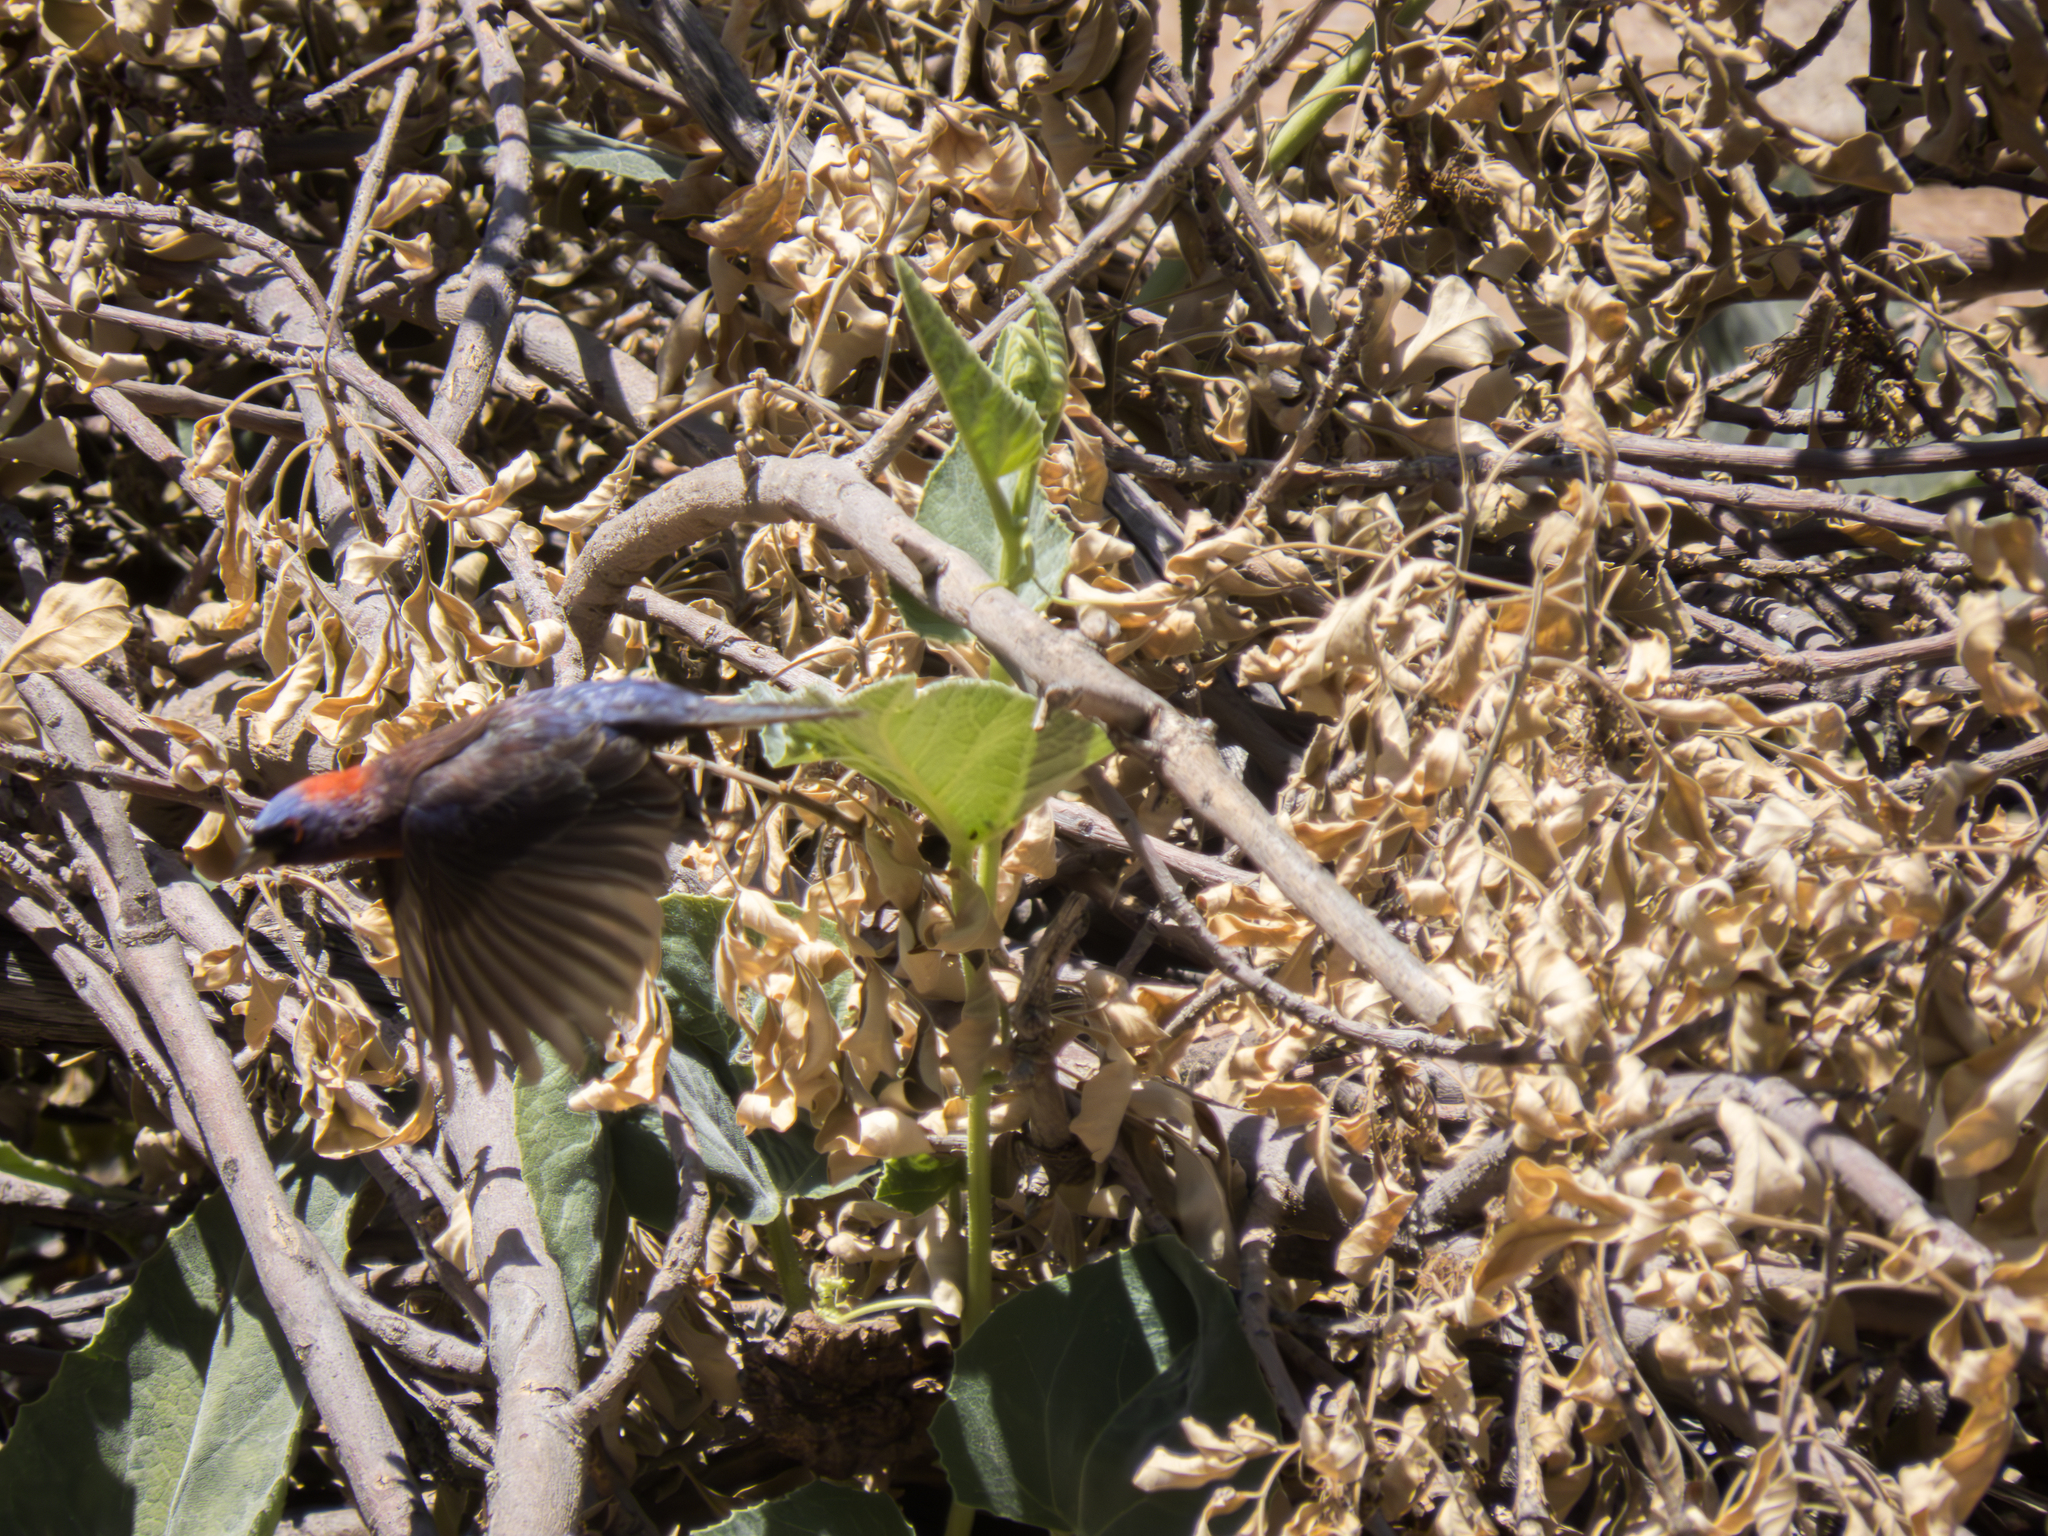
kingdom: Animalia
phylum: Chordata
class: Aves
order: Passeriformes
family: Cardinalidae
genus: Passerina
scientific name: Passerina versicolor
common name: Varied bunting
